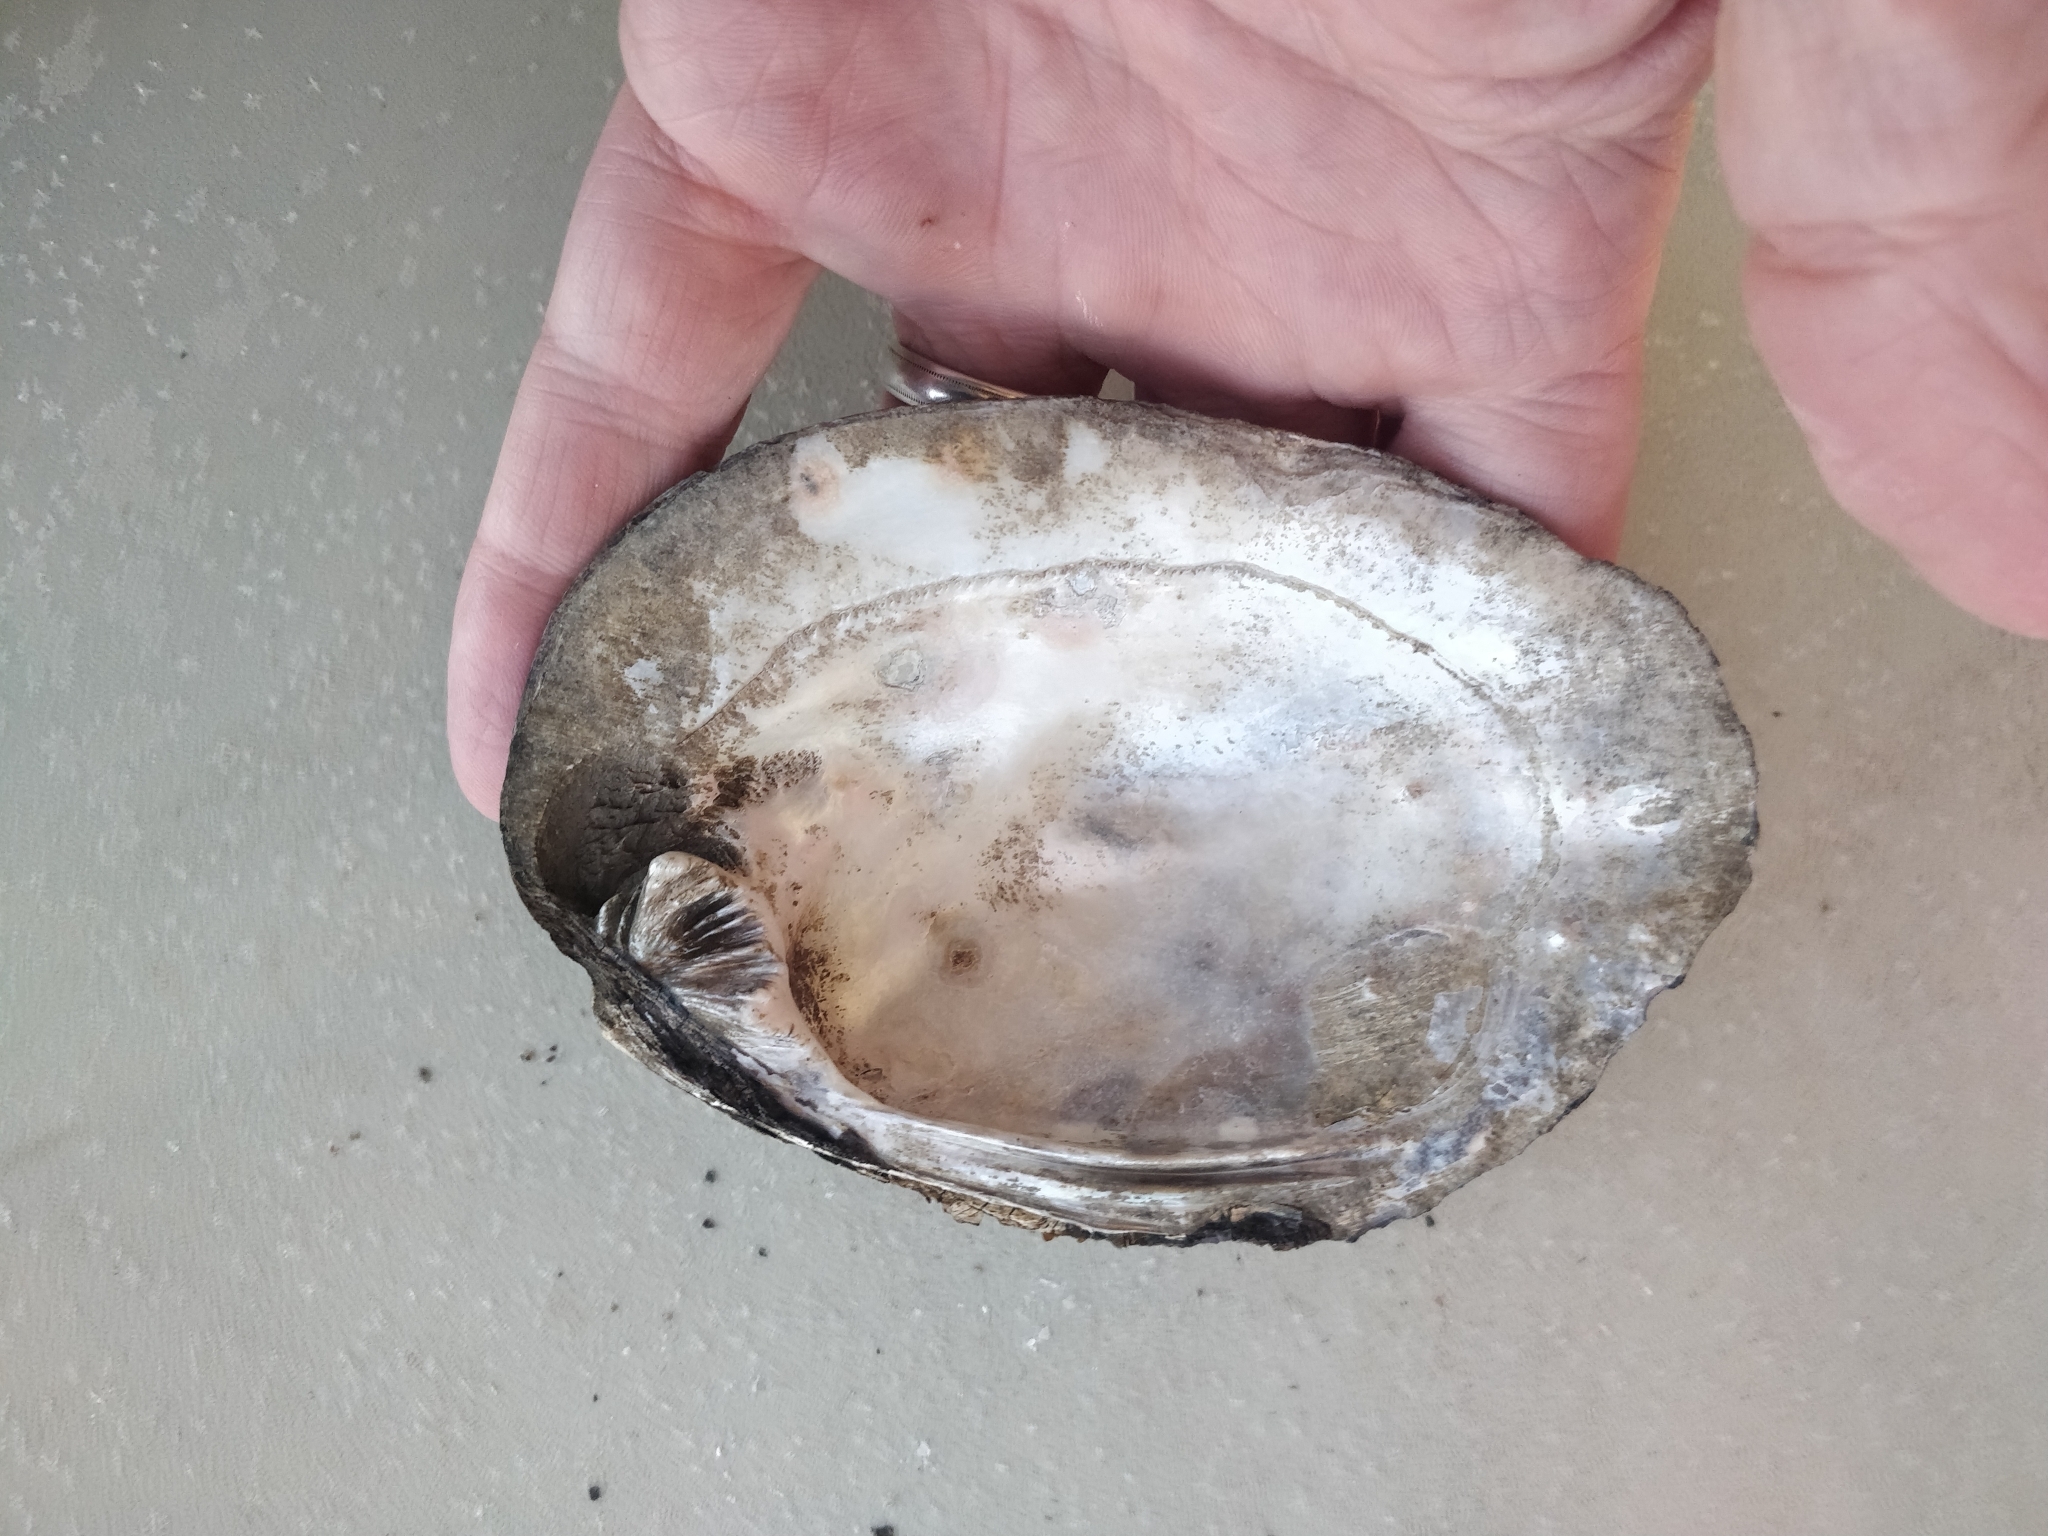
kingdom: Animalia
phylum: Mollusca
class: Bivalvia
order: Unionida
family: Unionidae
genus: Amblema
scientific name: Amblema plicata
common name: Threeridge
